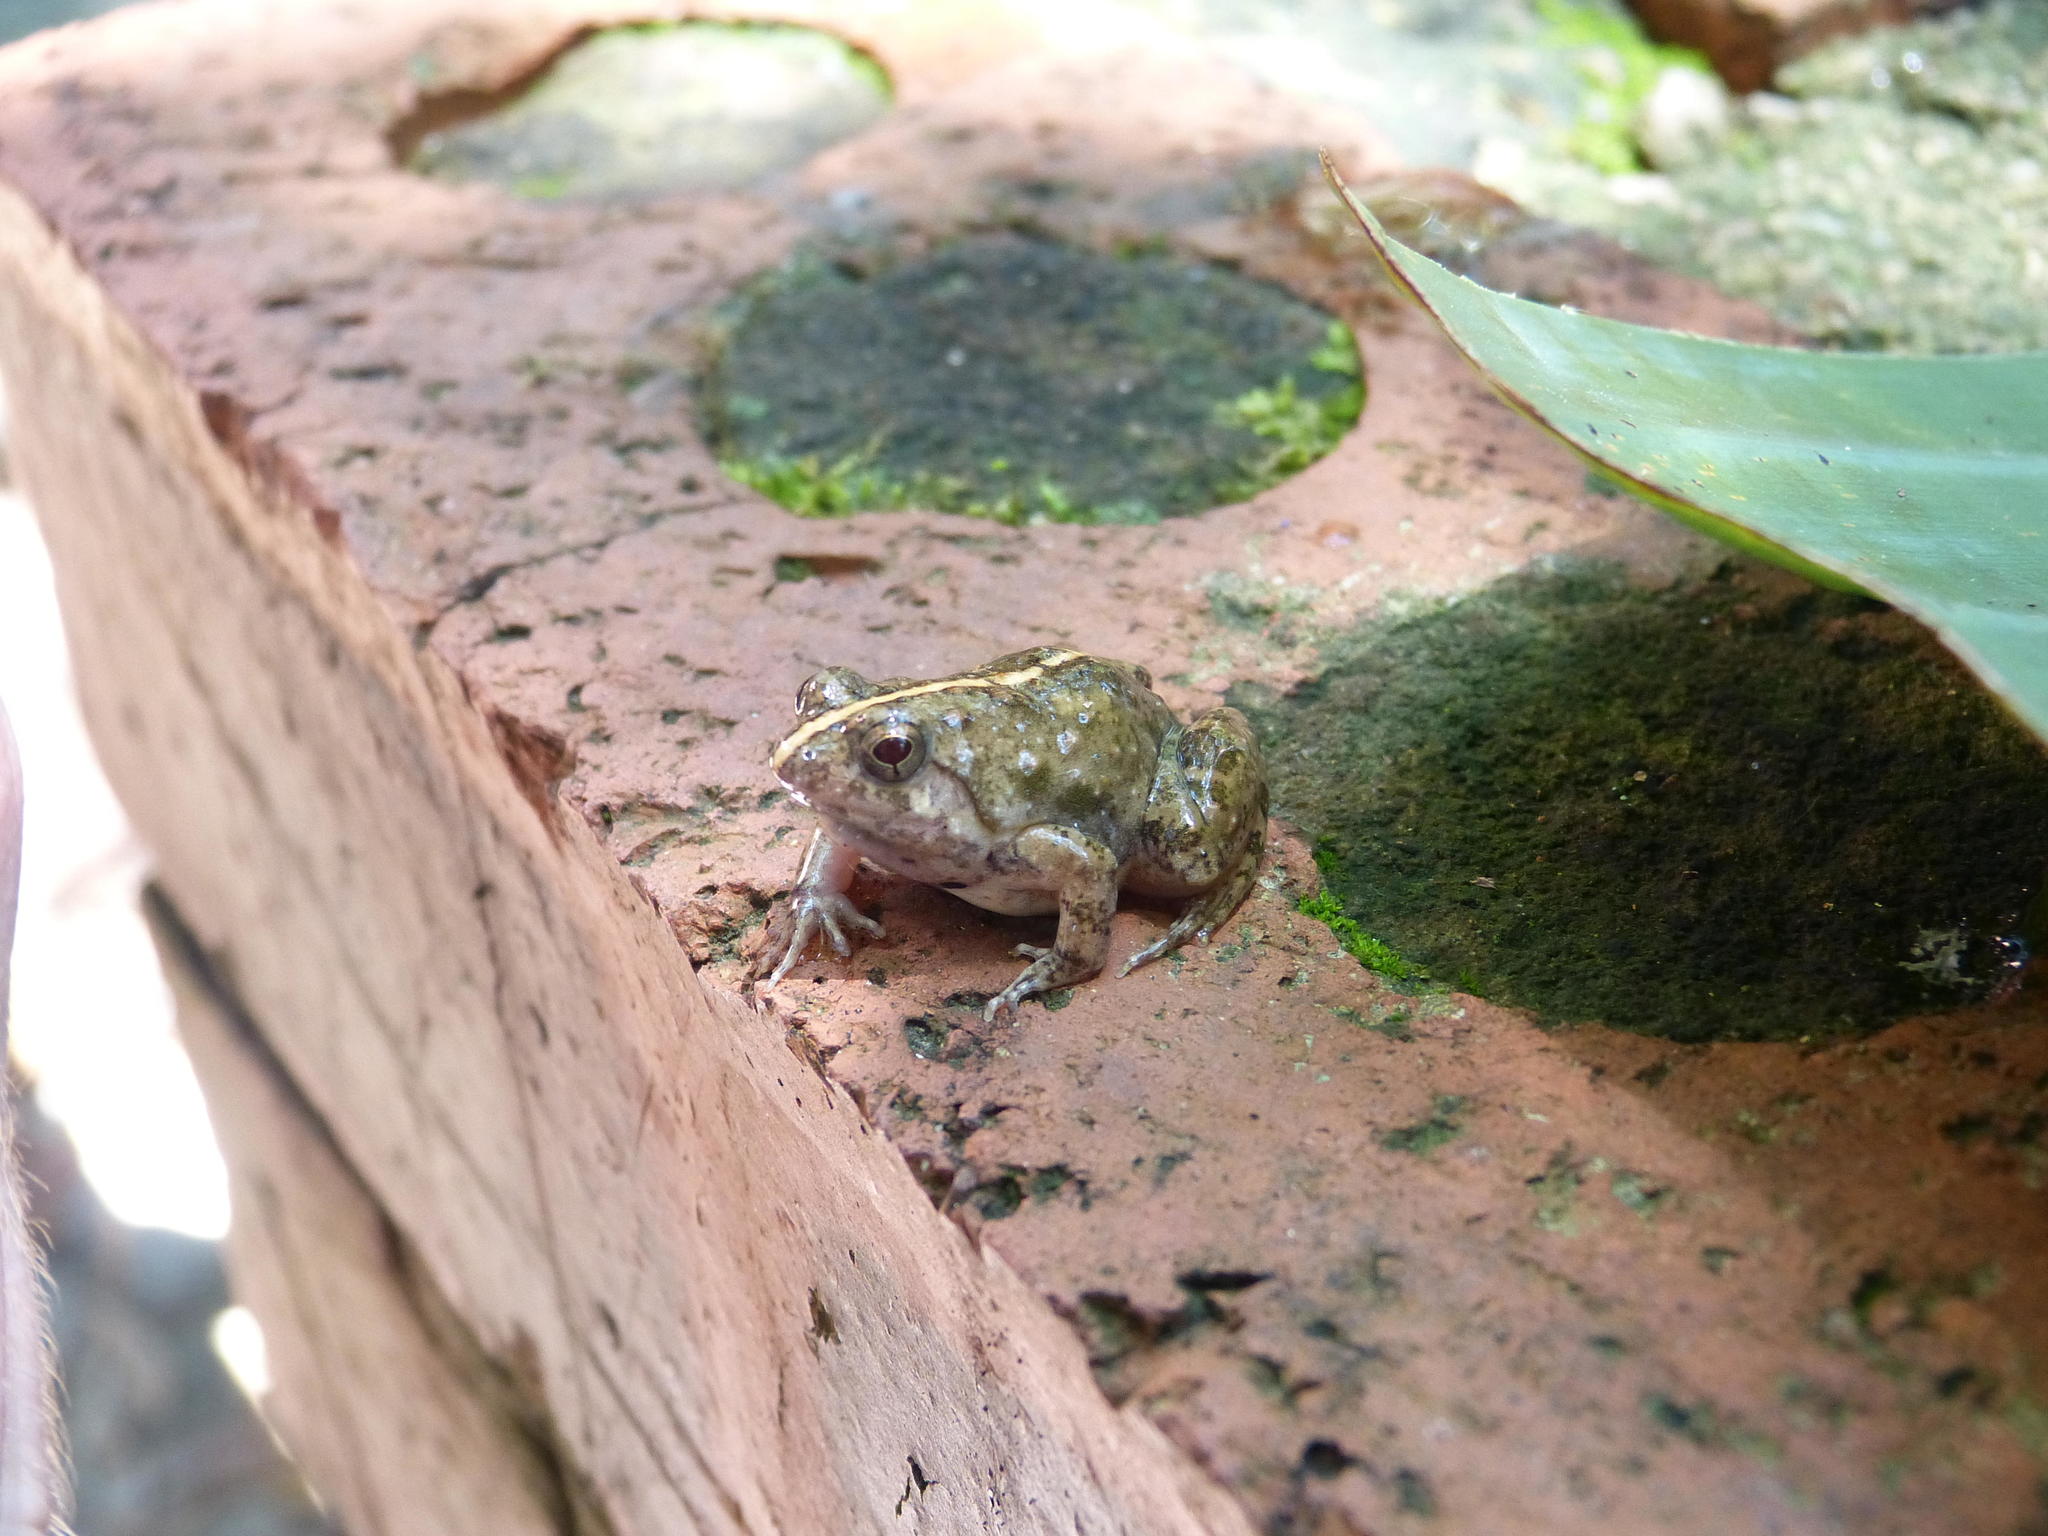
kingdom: Animalia
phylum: Chordata
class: Amphibia
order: Anura
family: Phrynobatrachidae
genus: Phrynobatrachus
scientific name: Phrynobatrachus natalensis
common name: Snoring puddle frog
